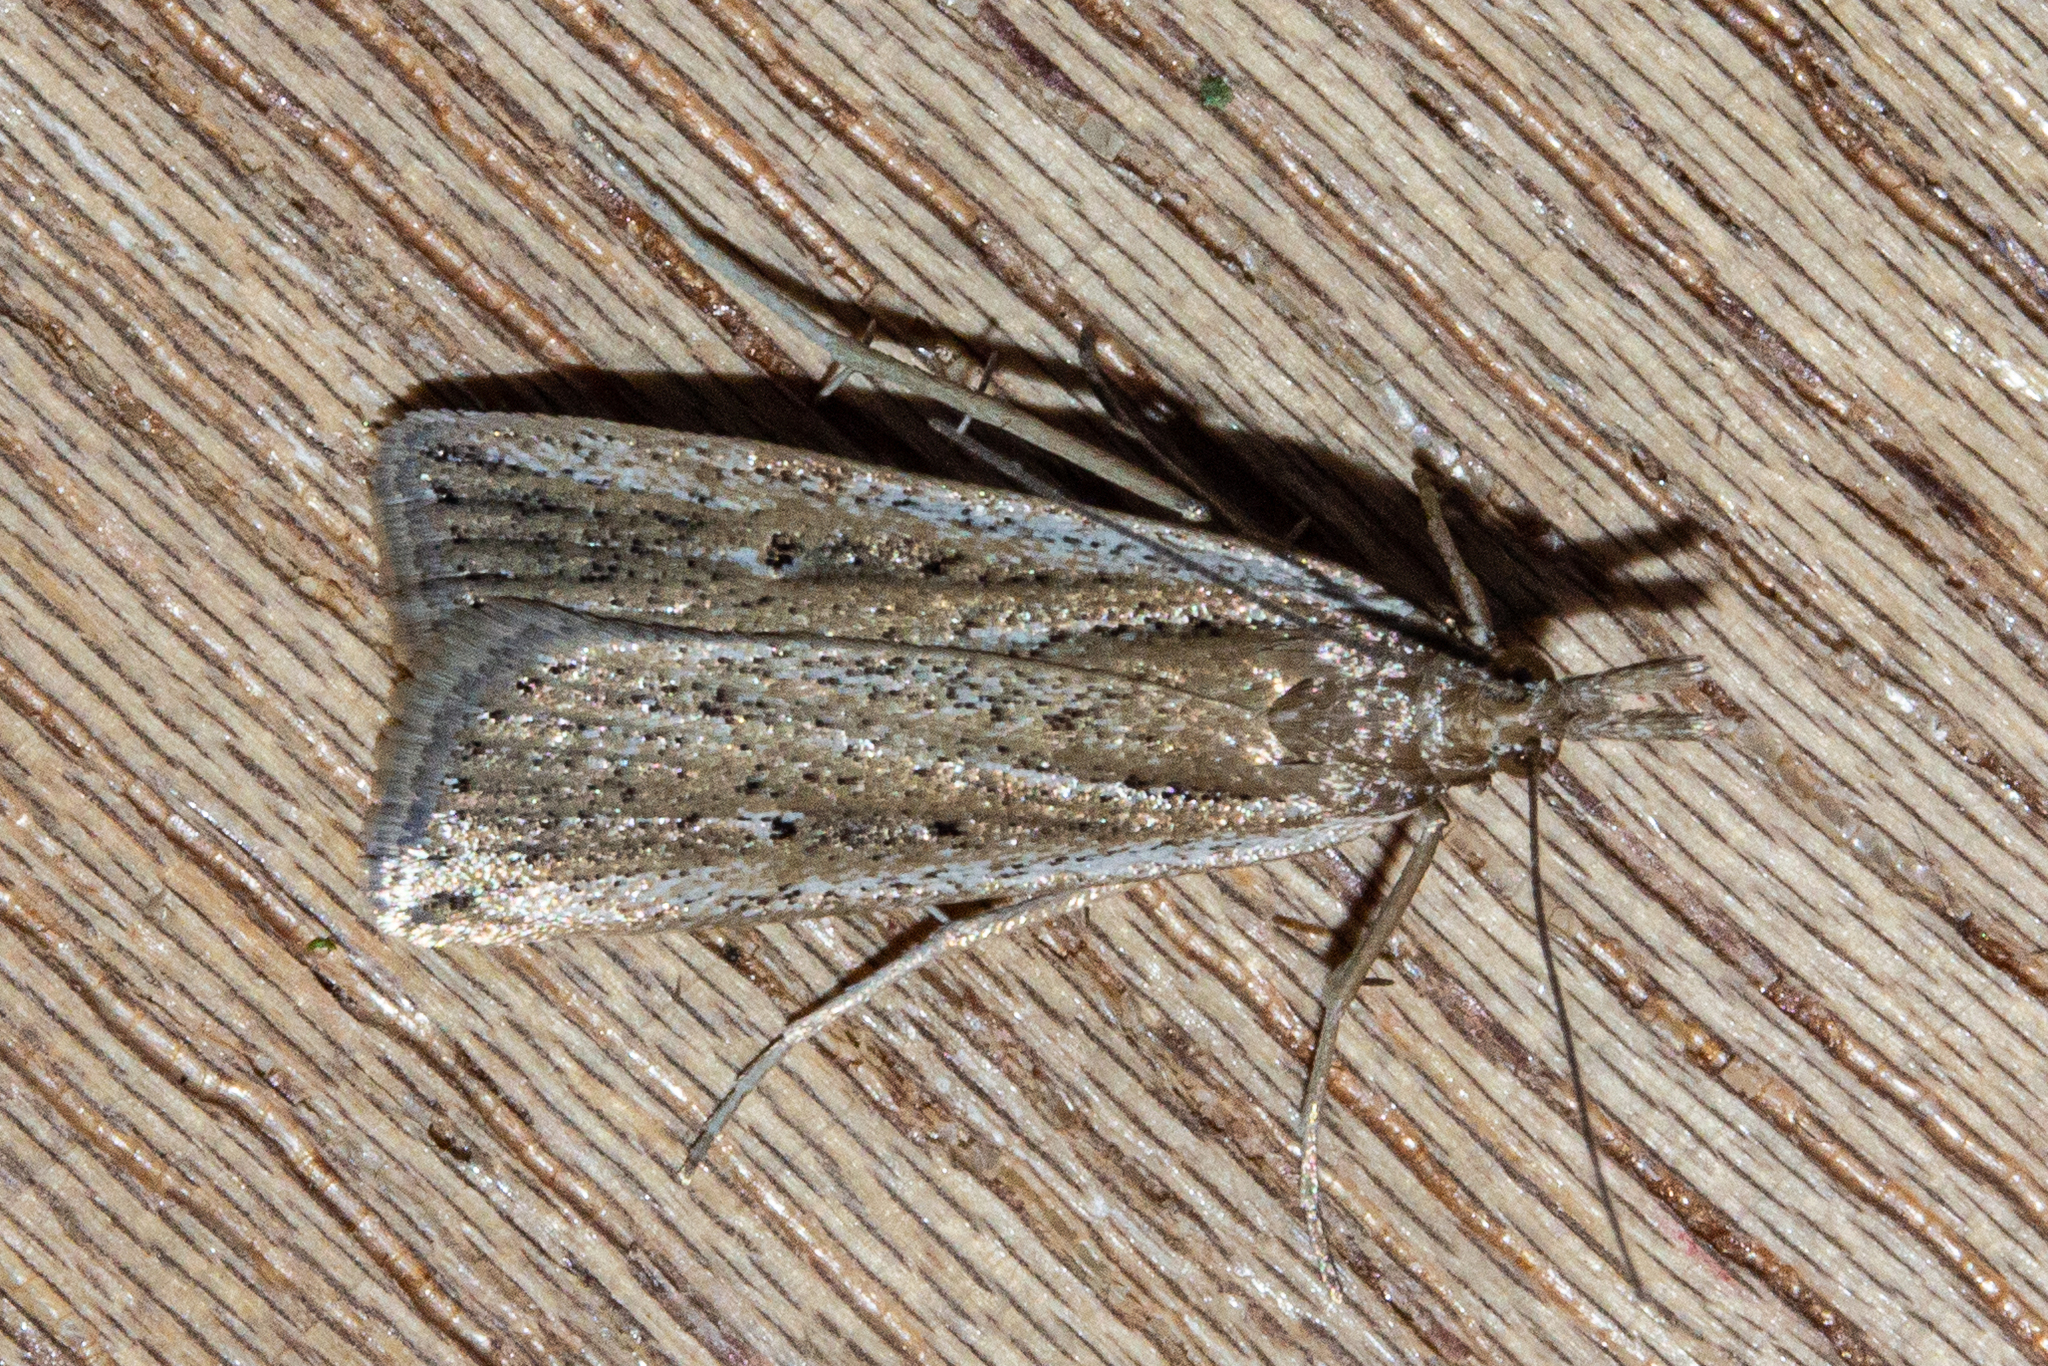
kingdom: Animalia
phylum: Arthropoda
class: Insecta
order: Lepidoptera
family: Crambidae
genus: Eudonia
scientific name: Eudonia sabulosella
